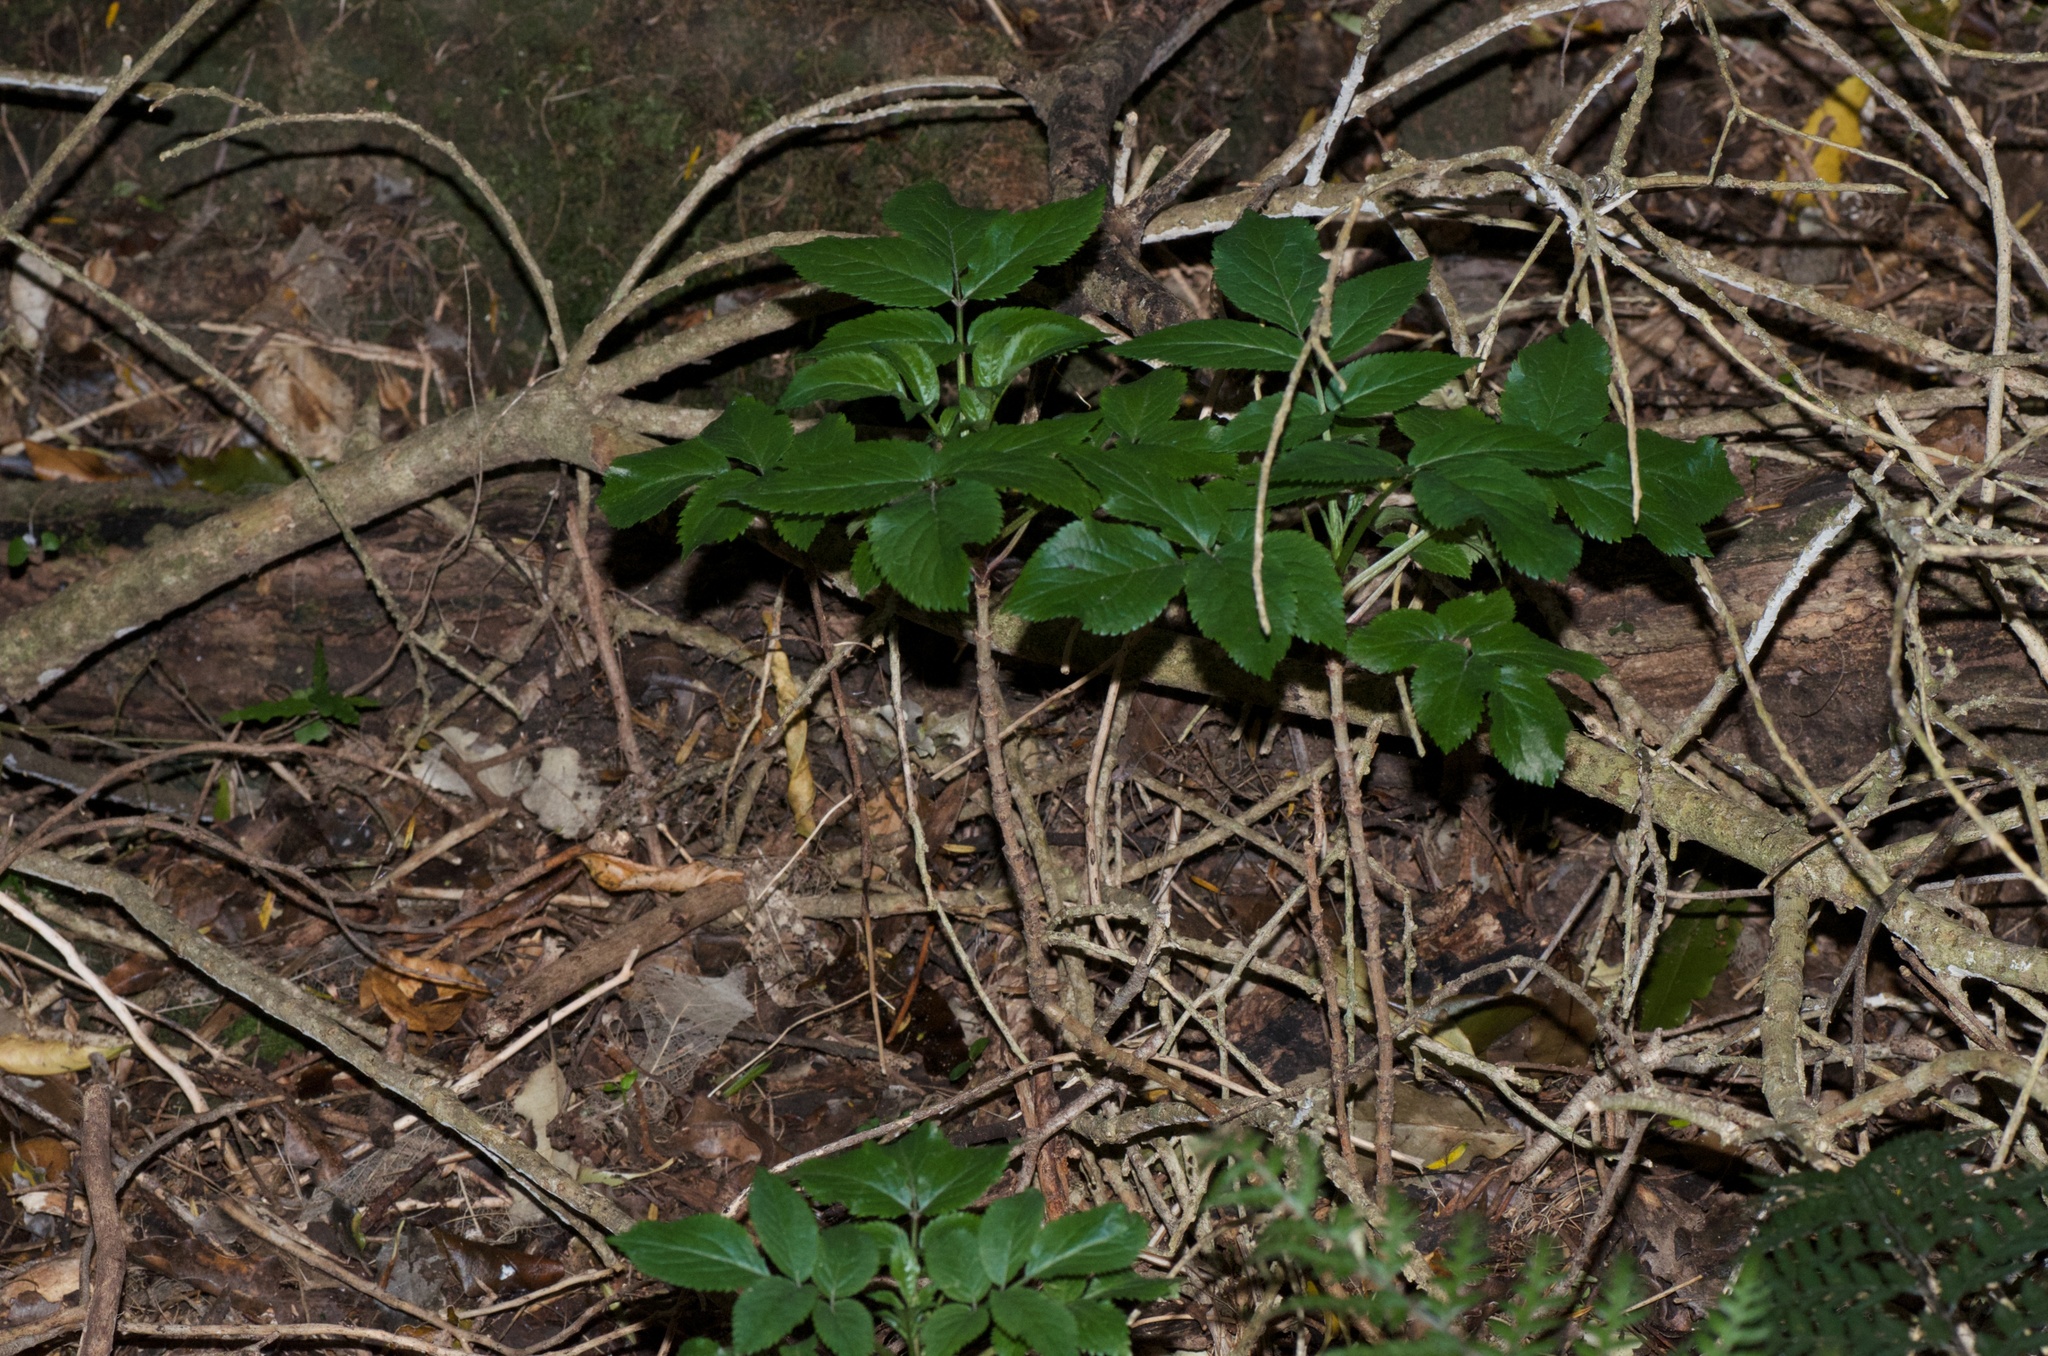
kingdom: Plantae
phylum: Tracheophyta
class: Magnoliopsida
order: Dipsacales
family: Viburnaceae
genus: Sambucus
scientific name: Sambucus nigra
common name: Elder
